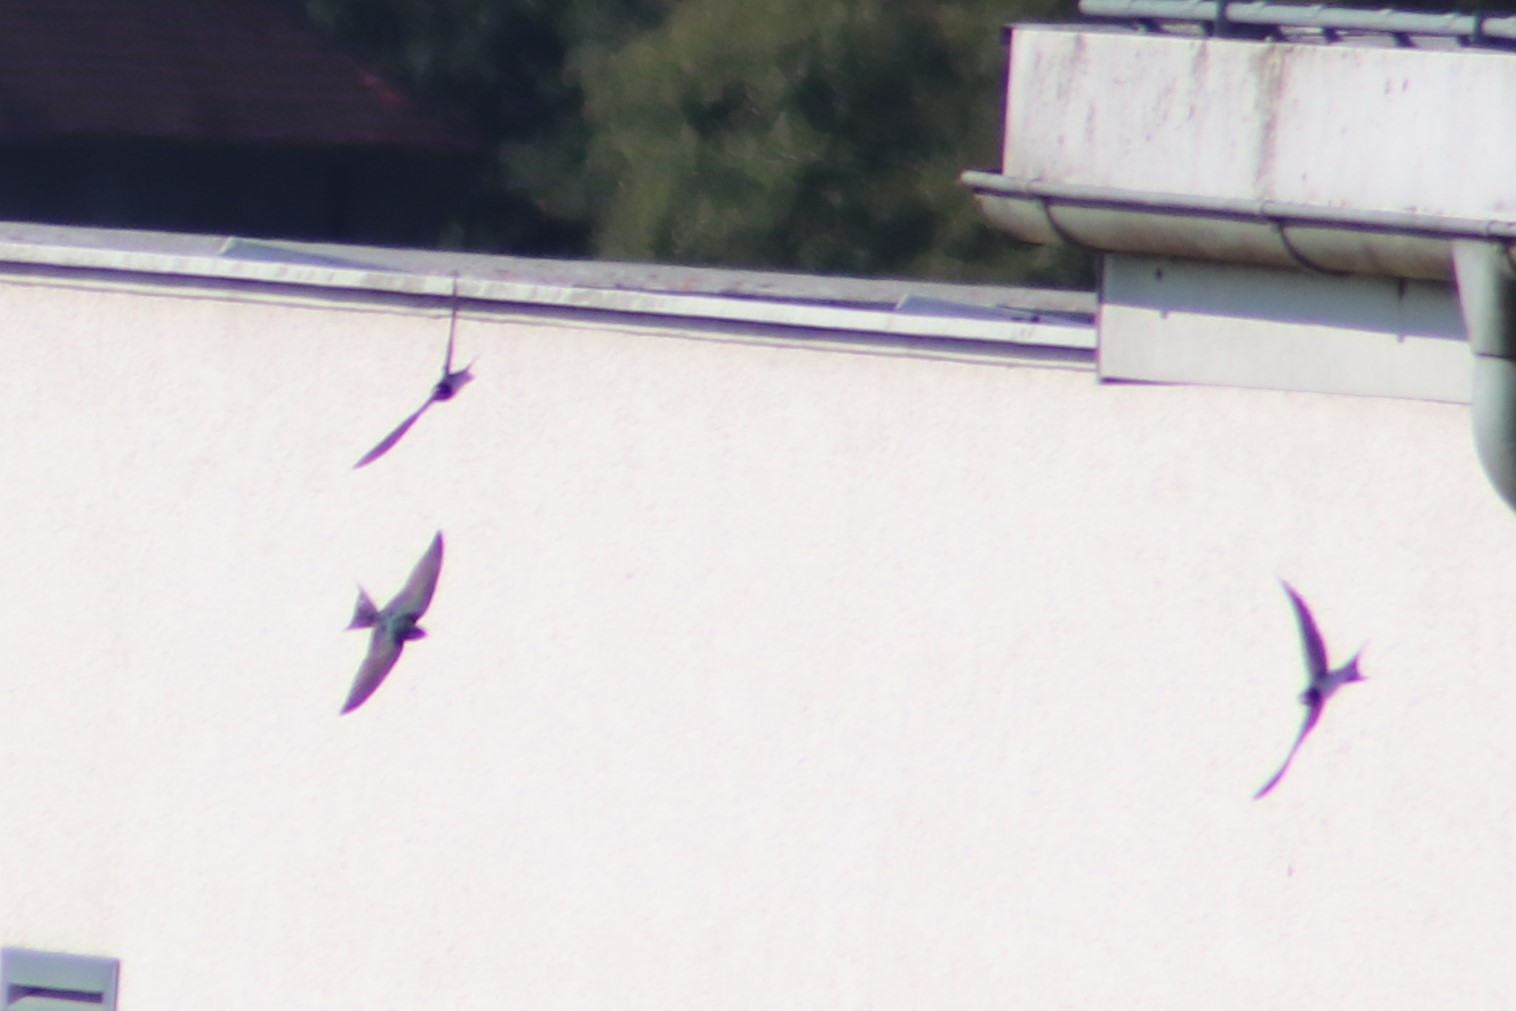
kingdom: Animalia
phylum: Chordata
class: Aves
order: Passeriformes
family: Hirundinidae
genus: Hirundo
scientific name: Hirundo rustica
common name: Barn swallow
